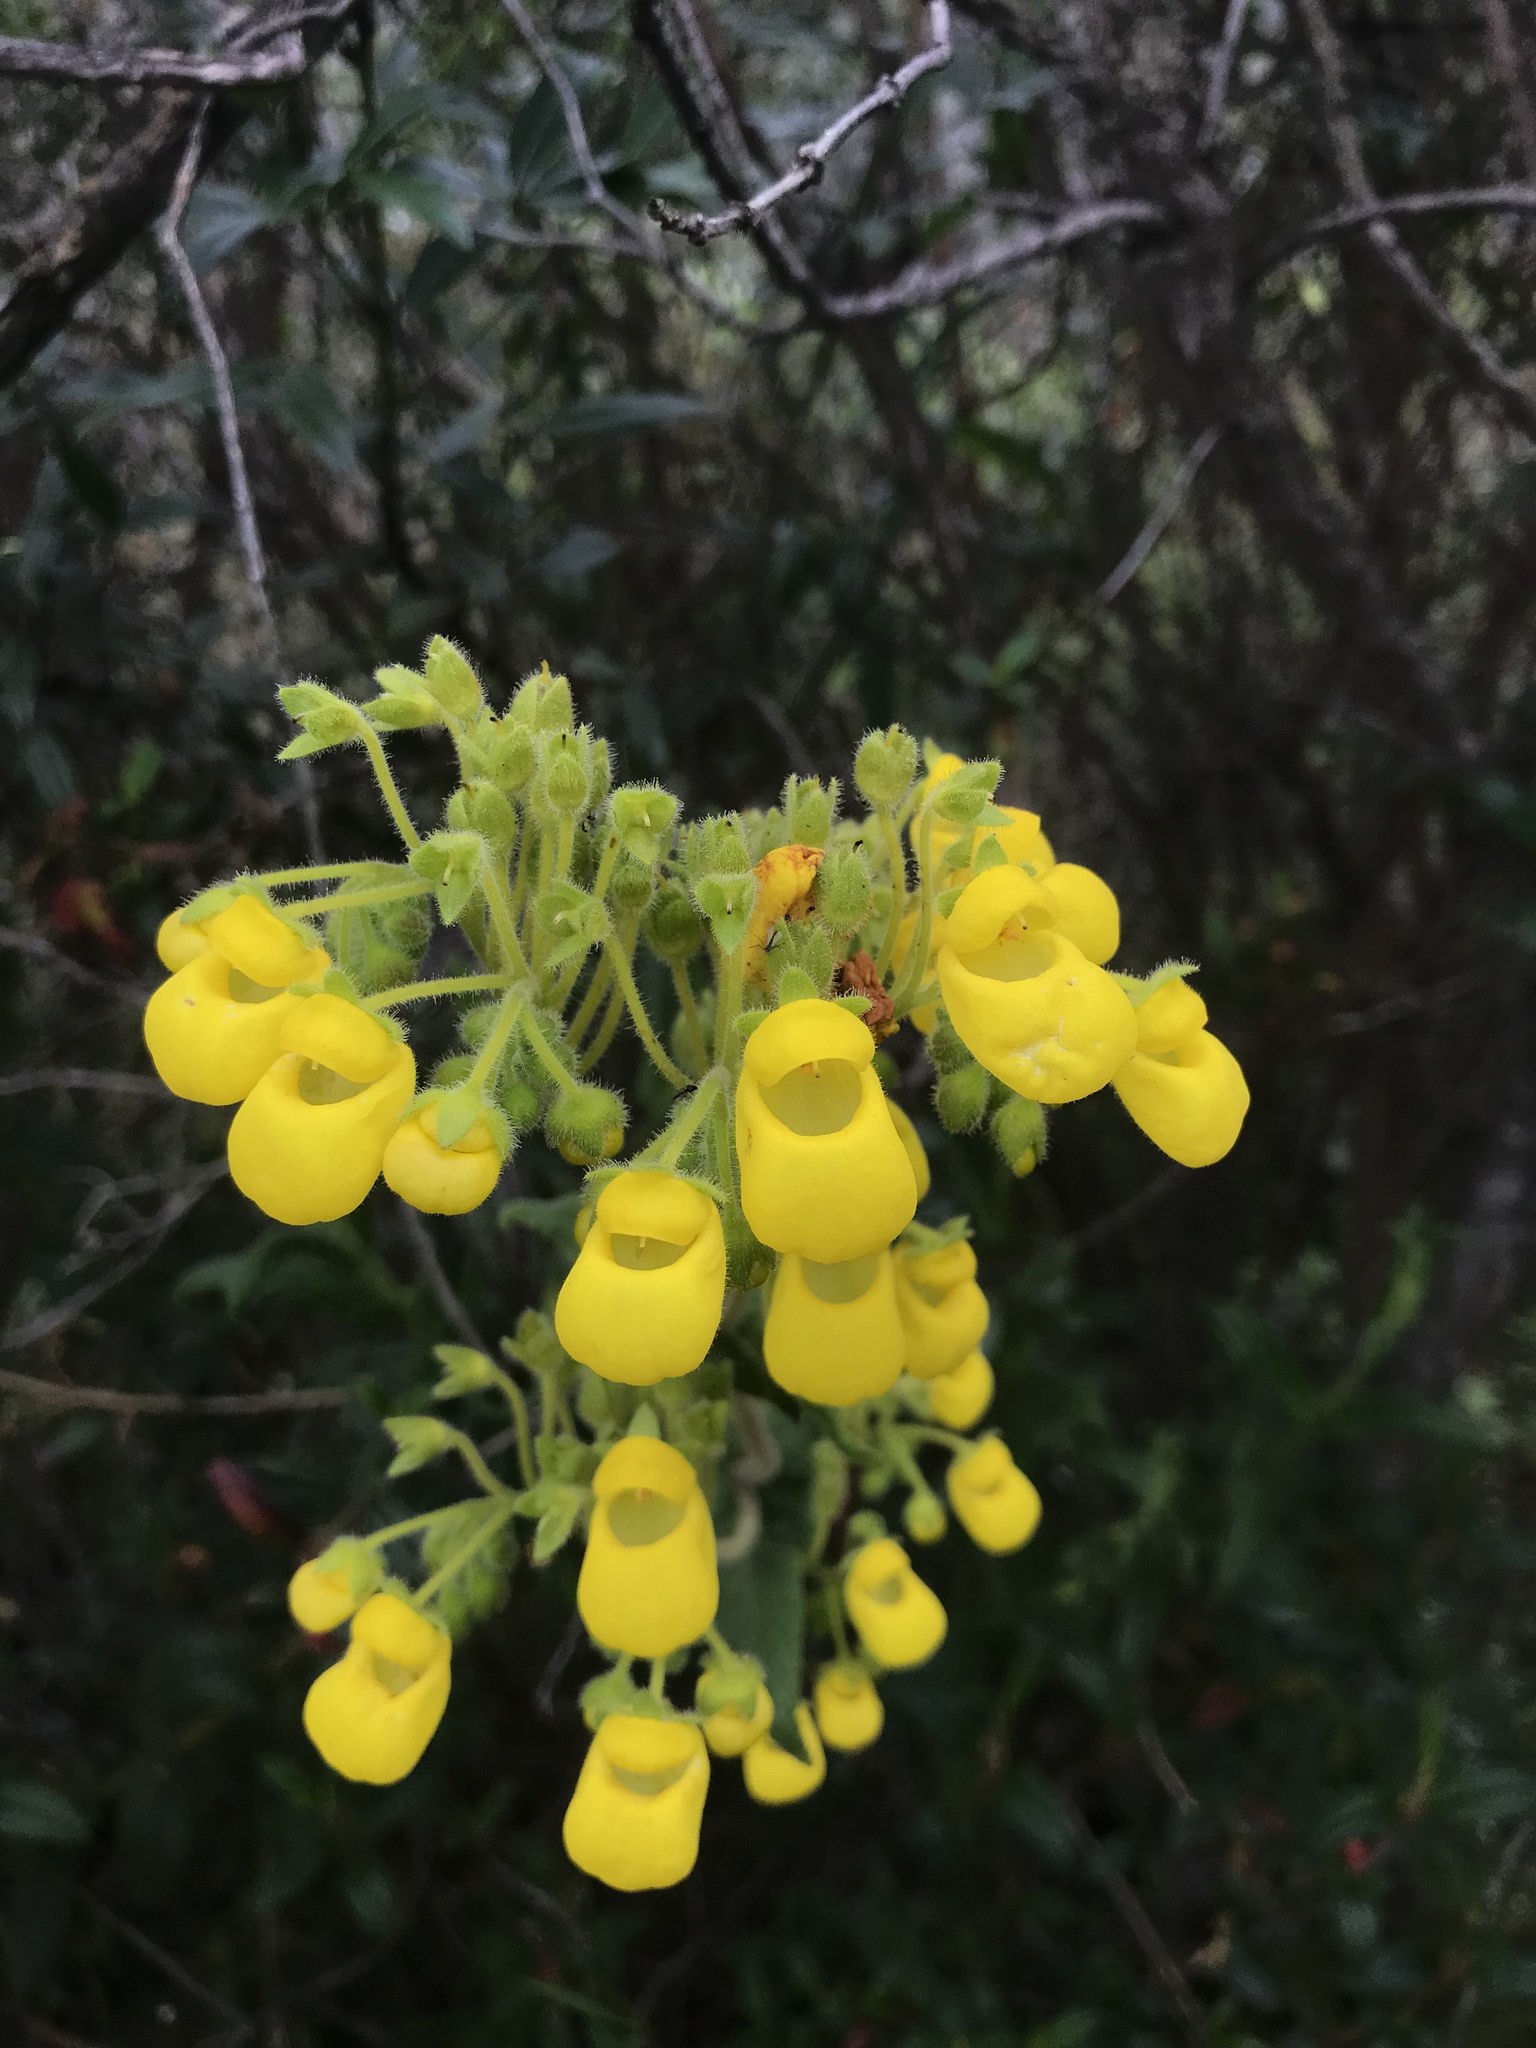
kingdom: Plantae
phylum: Tracheophyta
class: Magnoliopsida
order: Lamiales
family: Calceolariaceae
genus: Calceolaria
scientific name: Calceolaria crenata
